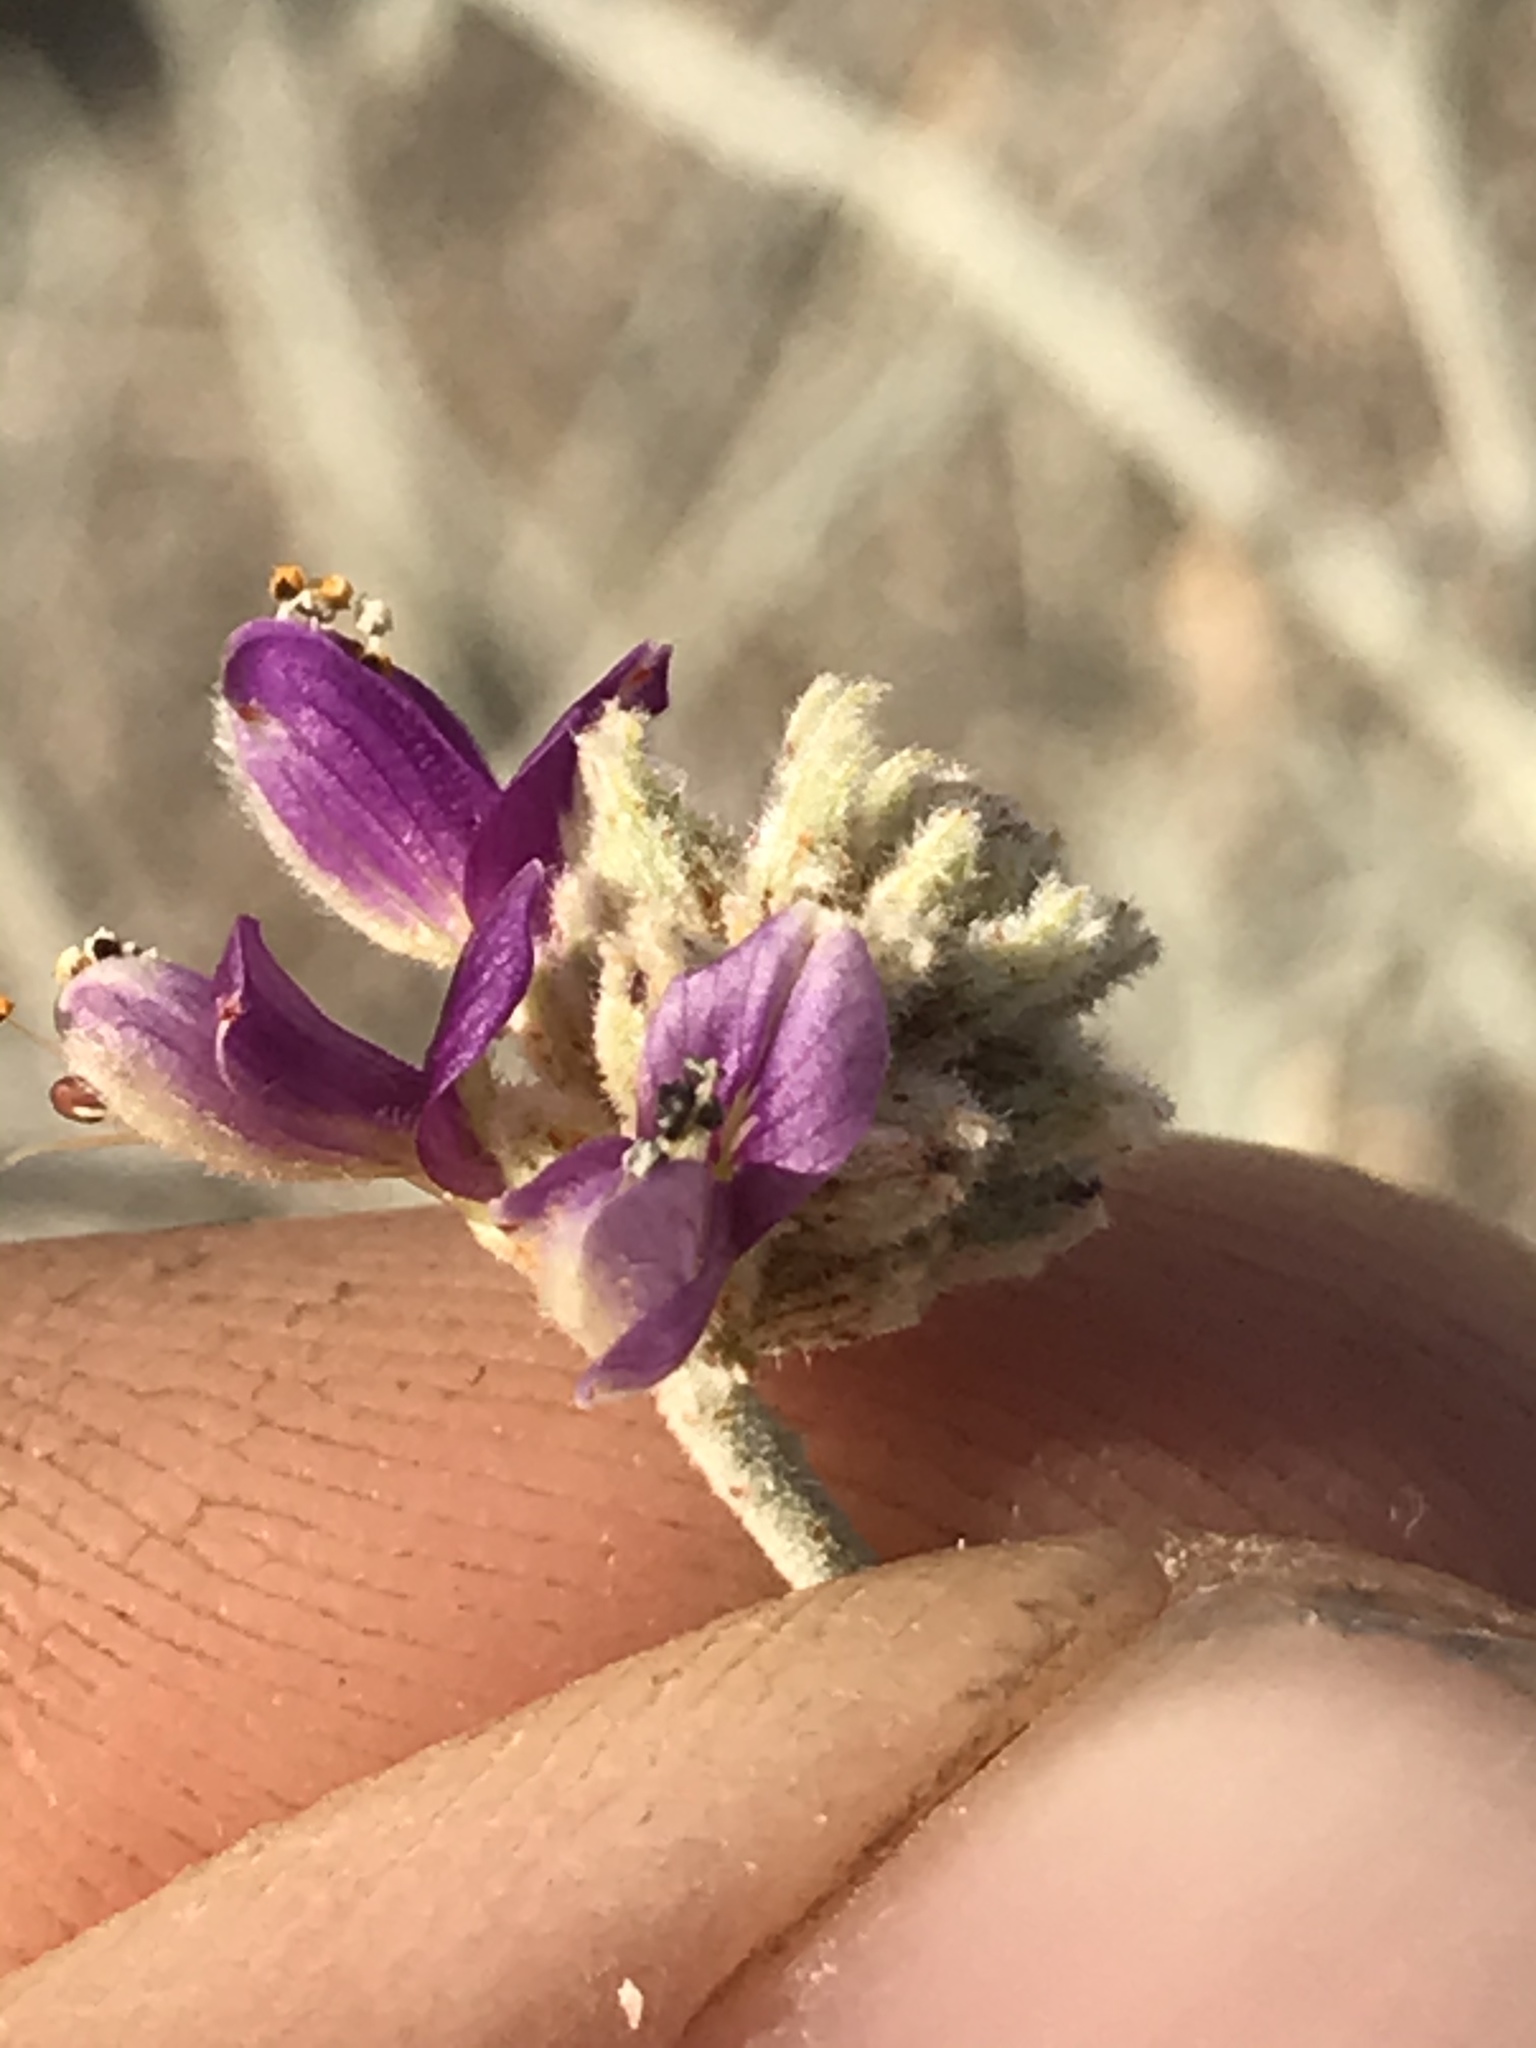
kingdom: Plantae
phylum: Tracheophyta
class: Magnoliopsida
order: Fabales
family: Fabaceae
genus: Psorothamnus
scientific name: Psorothamnus emoryi
